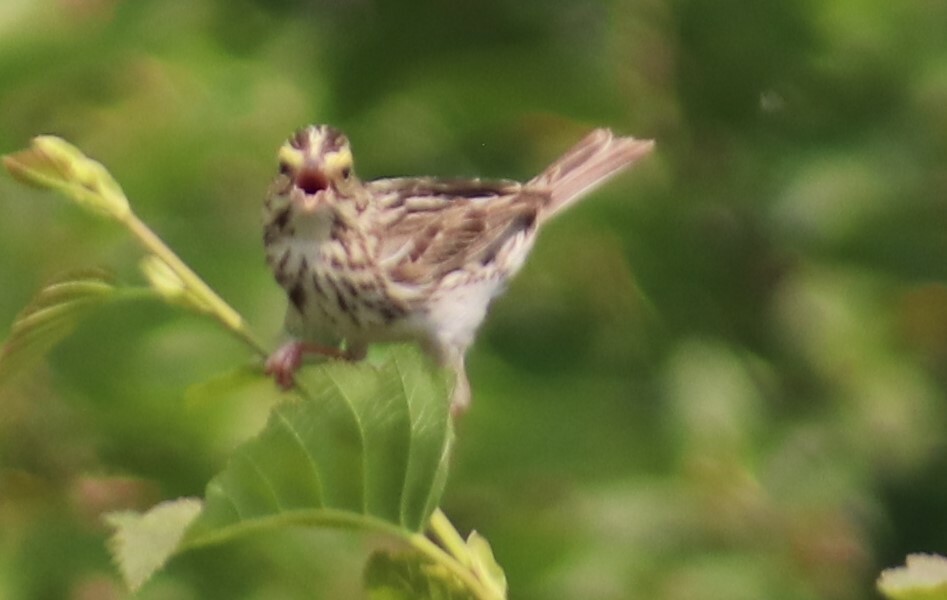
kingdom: Animalia
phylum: Chordata
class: Aves
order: Passeriformes
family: Passerellidae
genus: Passerculus
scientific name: Passerculus sandwichensis
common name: Savannah sparrow
